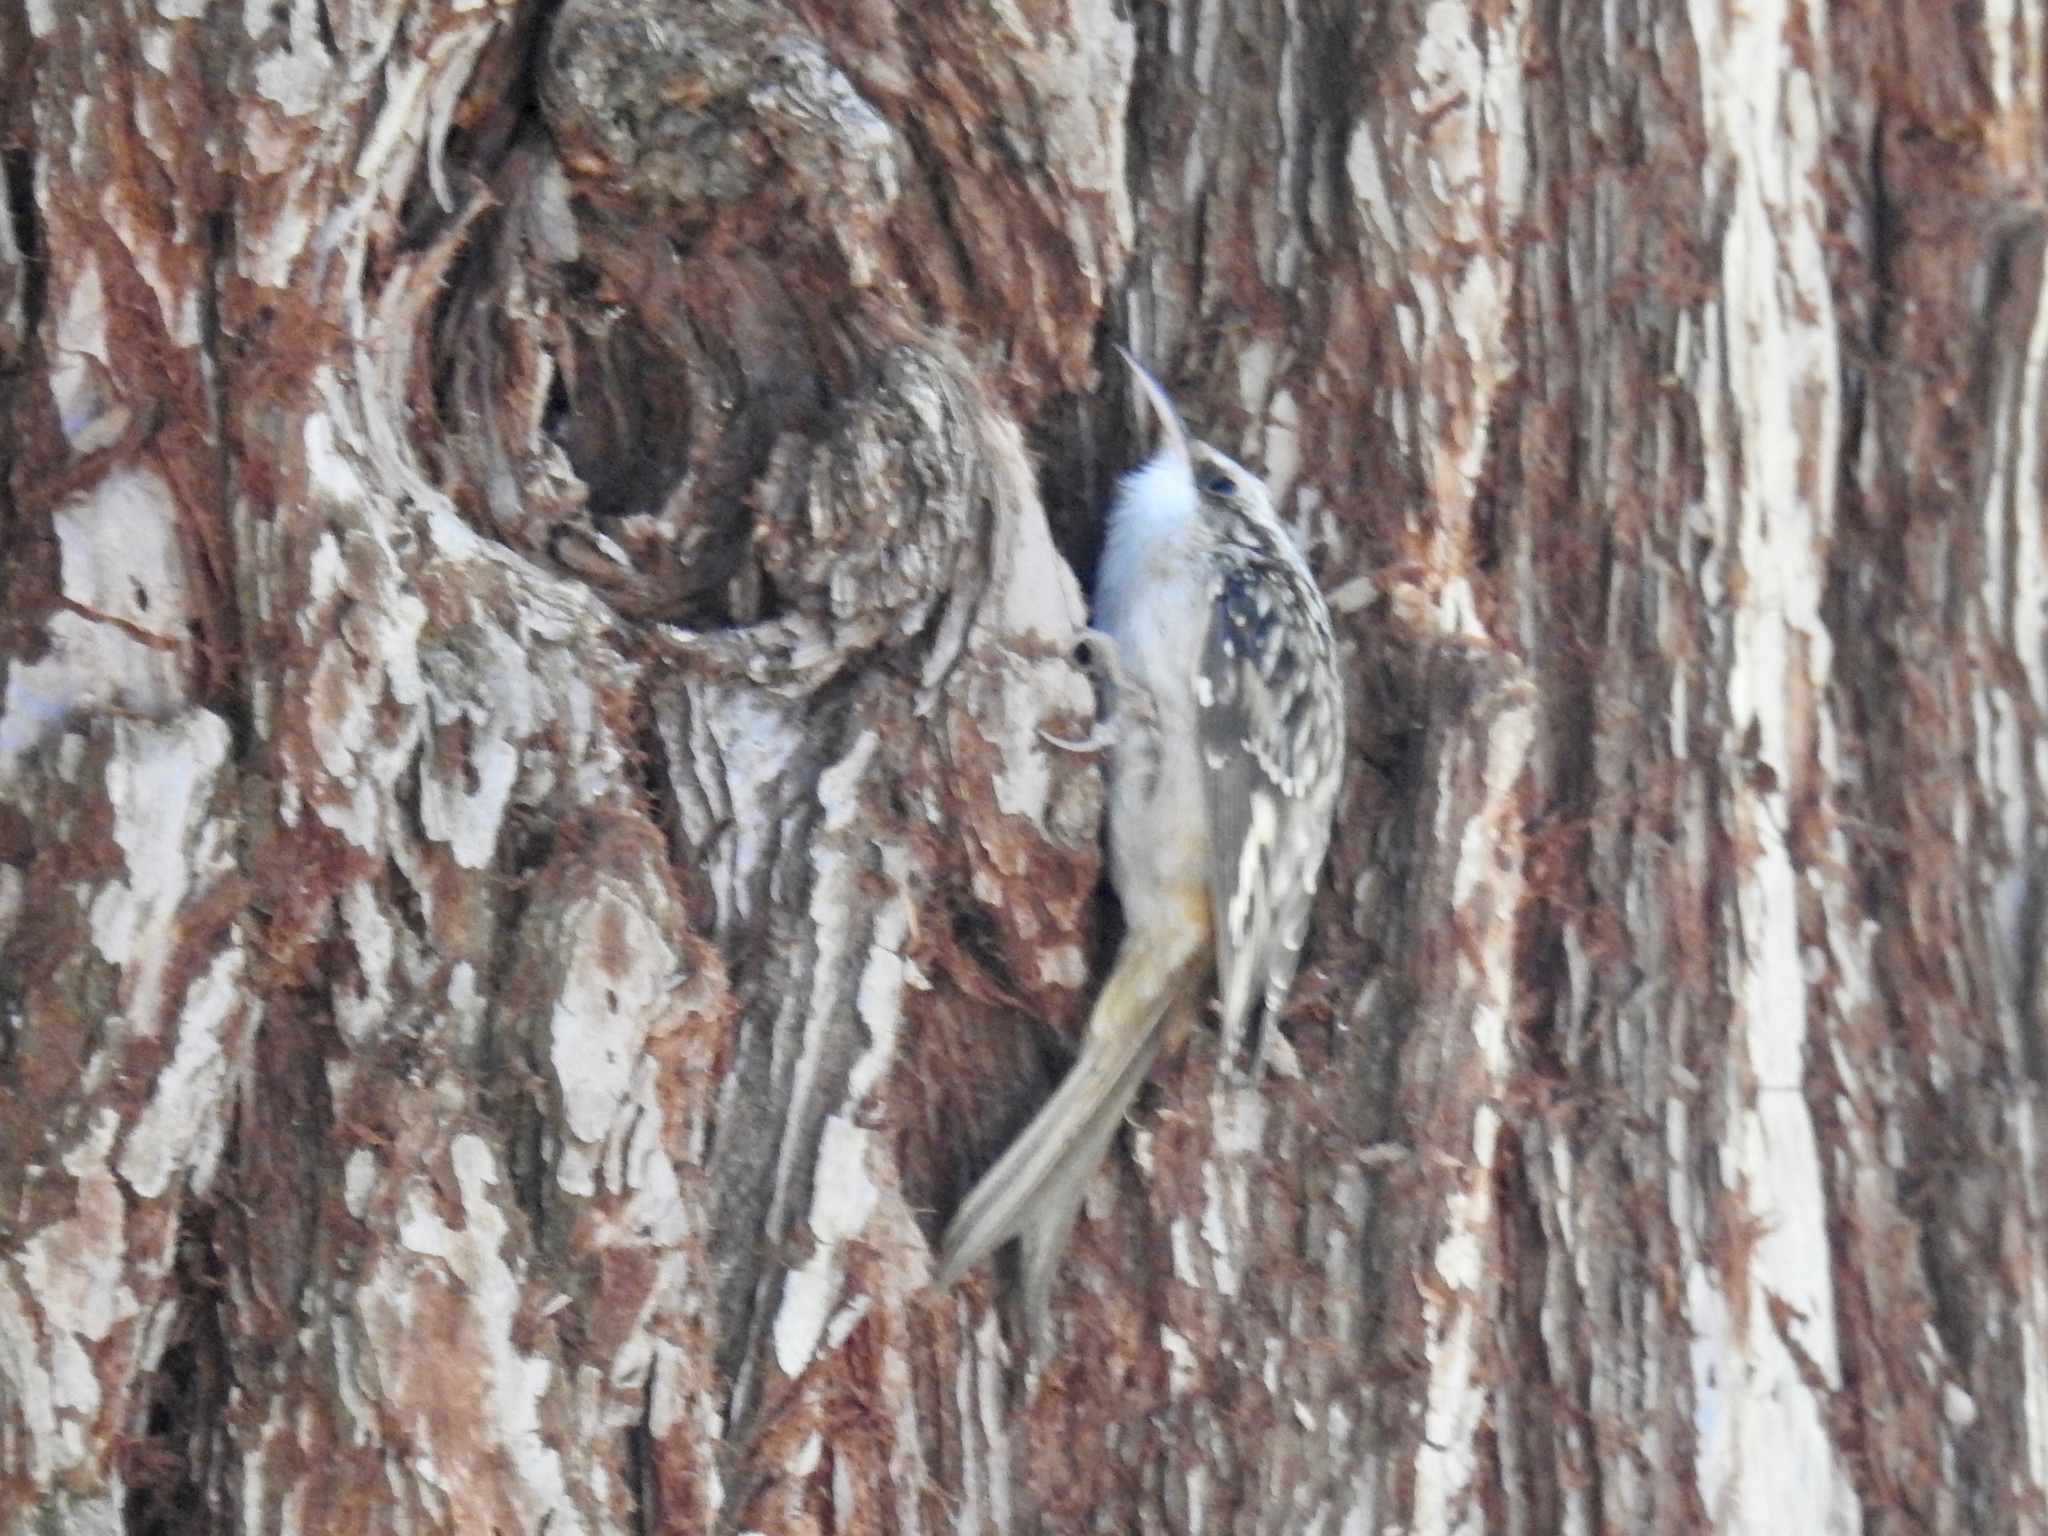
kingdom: Animalia
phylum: Chordata
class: Aves
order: Passeriformes
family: Certhiidae
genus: Certhia
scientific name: Certhia americana
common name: Brown creeper
